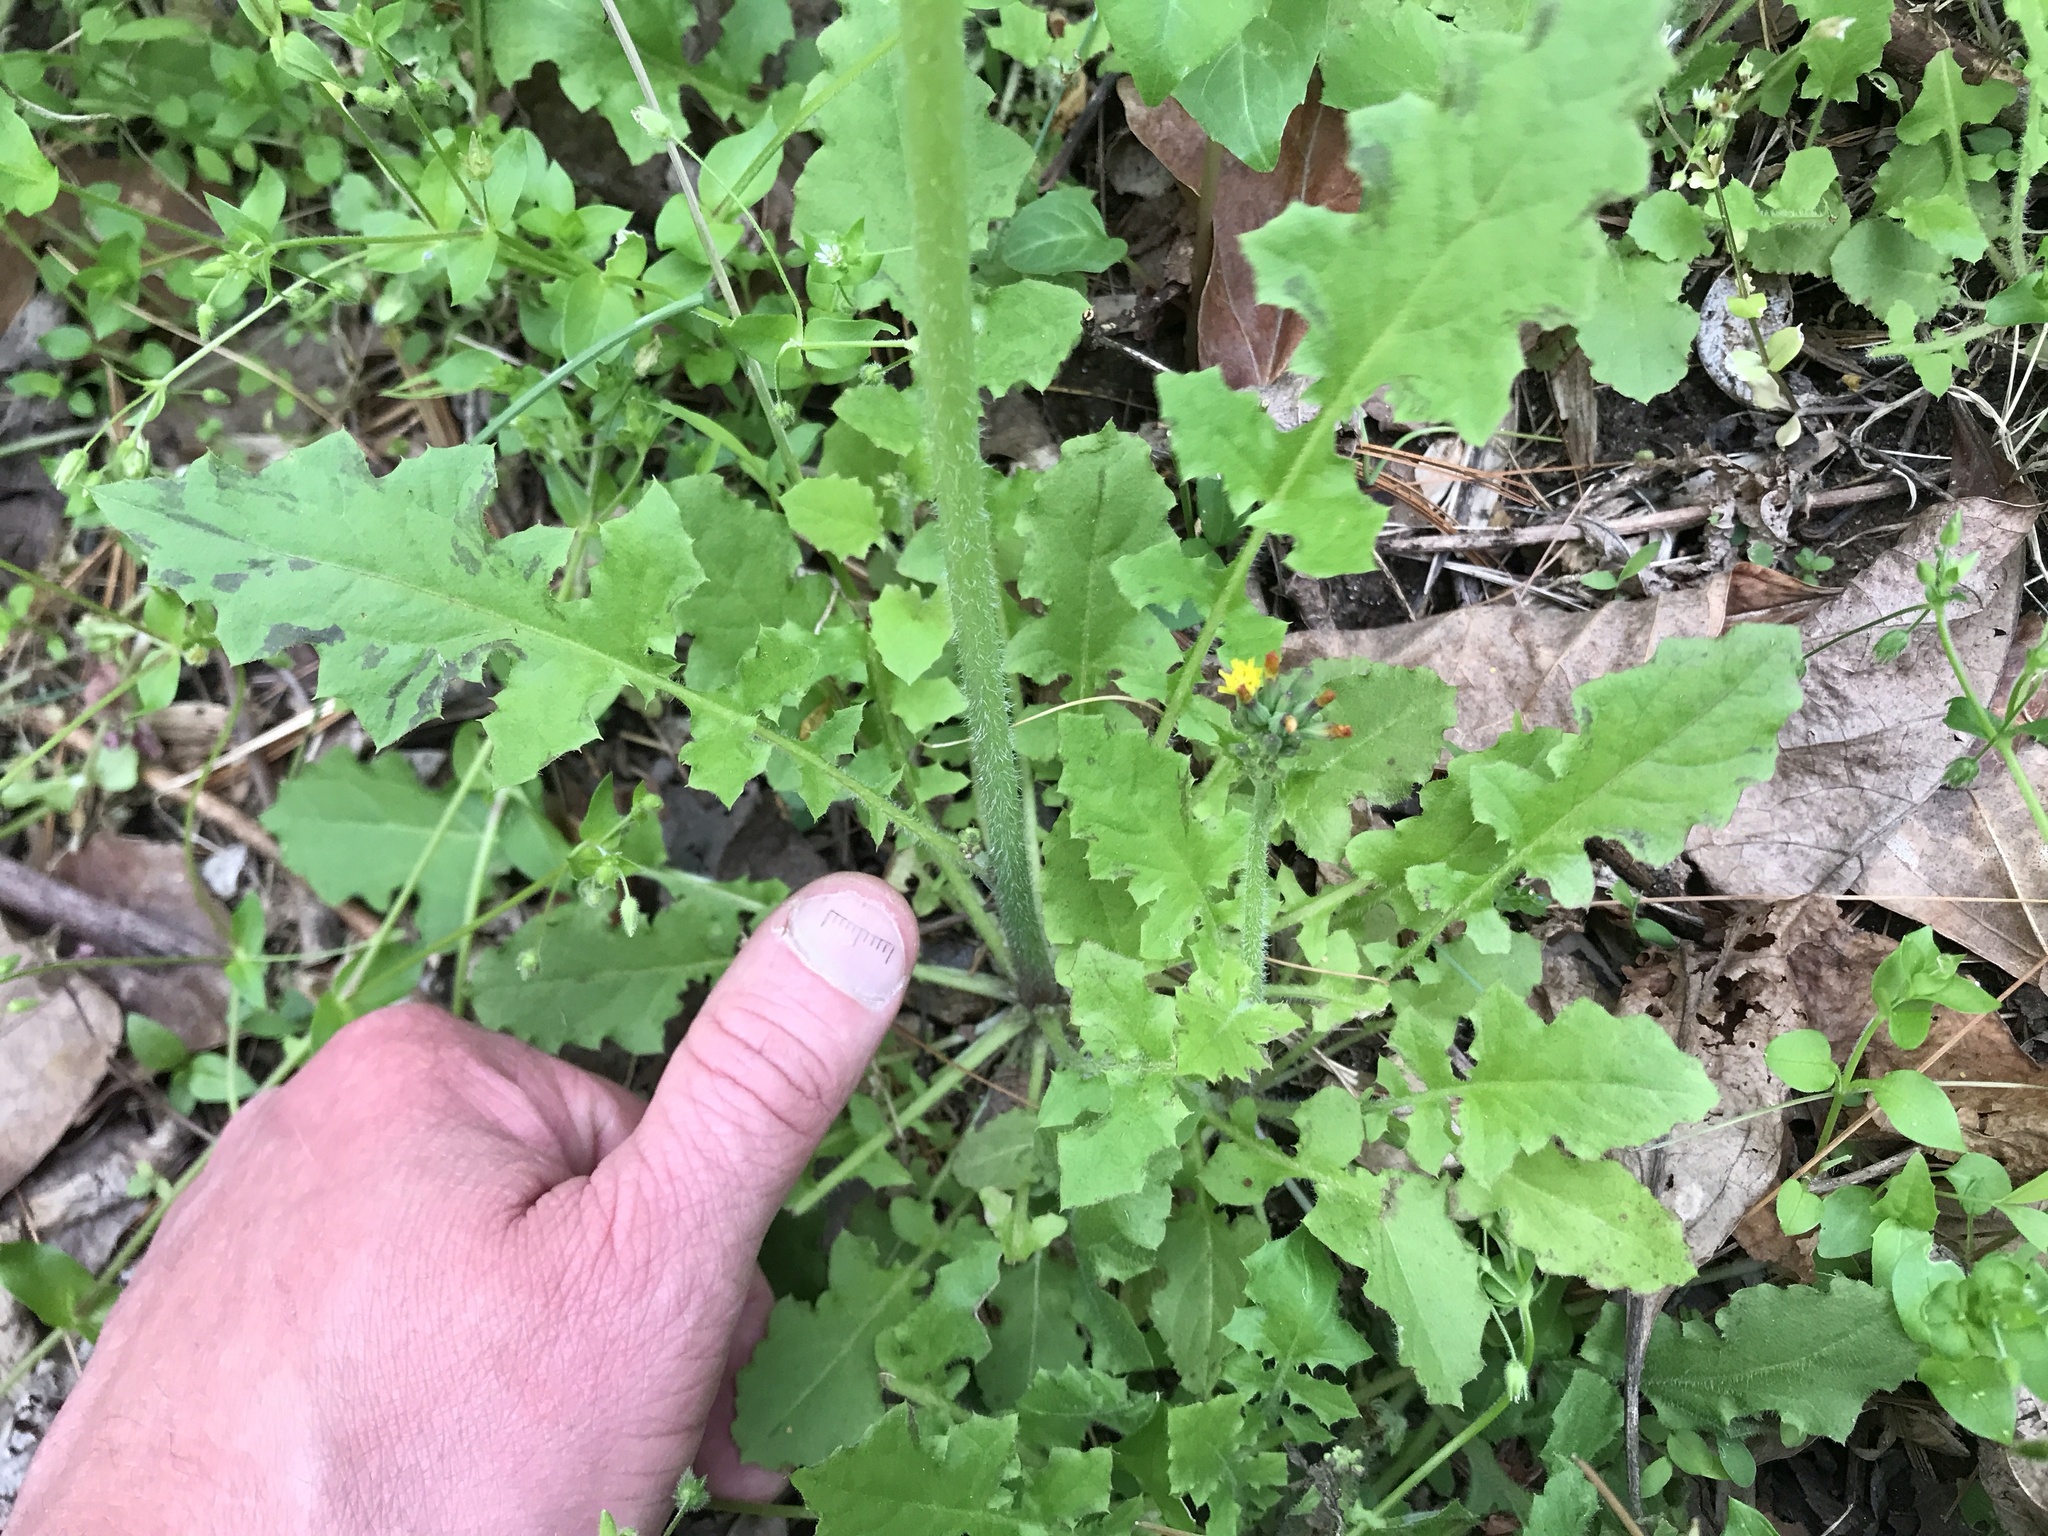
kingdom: Plantae
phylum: Tracheophyta
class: Magnoliopsida
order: Asterales
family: Asteraceae
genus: Youngia
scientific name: Youngia japonica
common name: Oriental false hawksbeard
